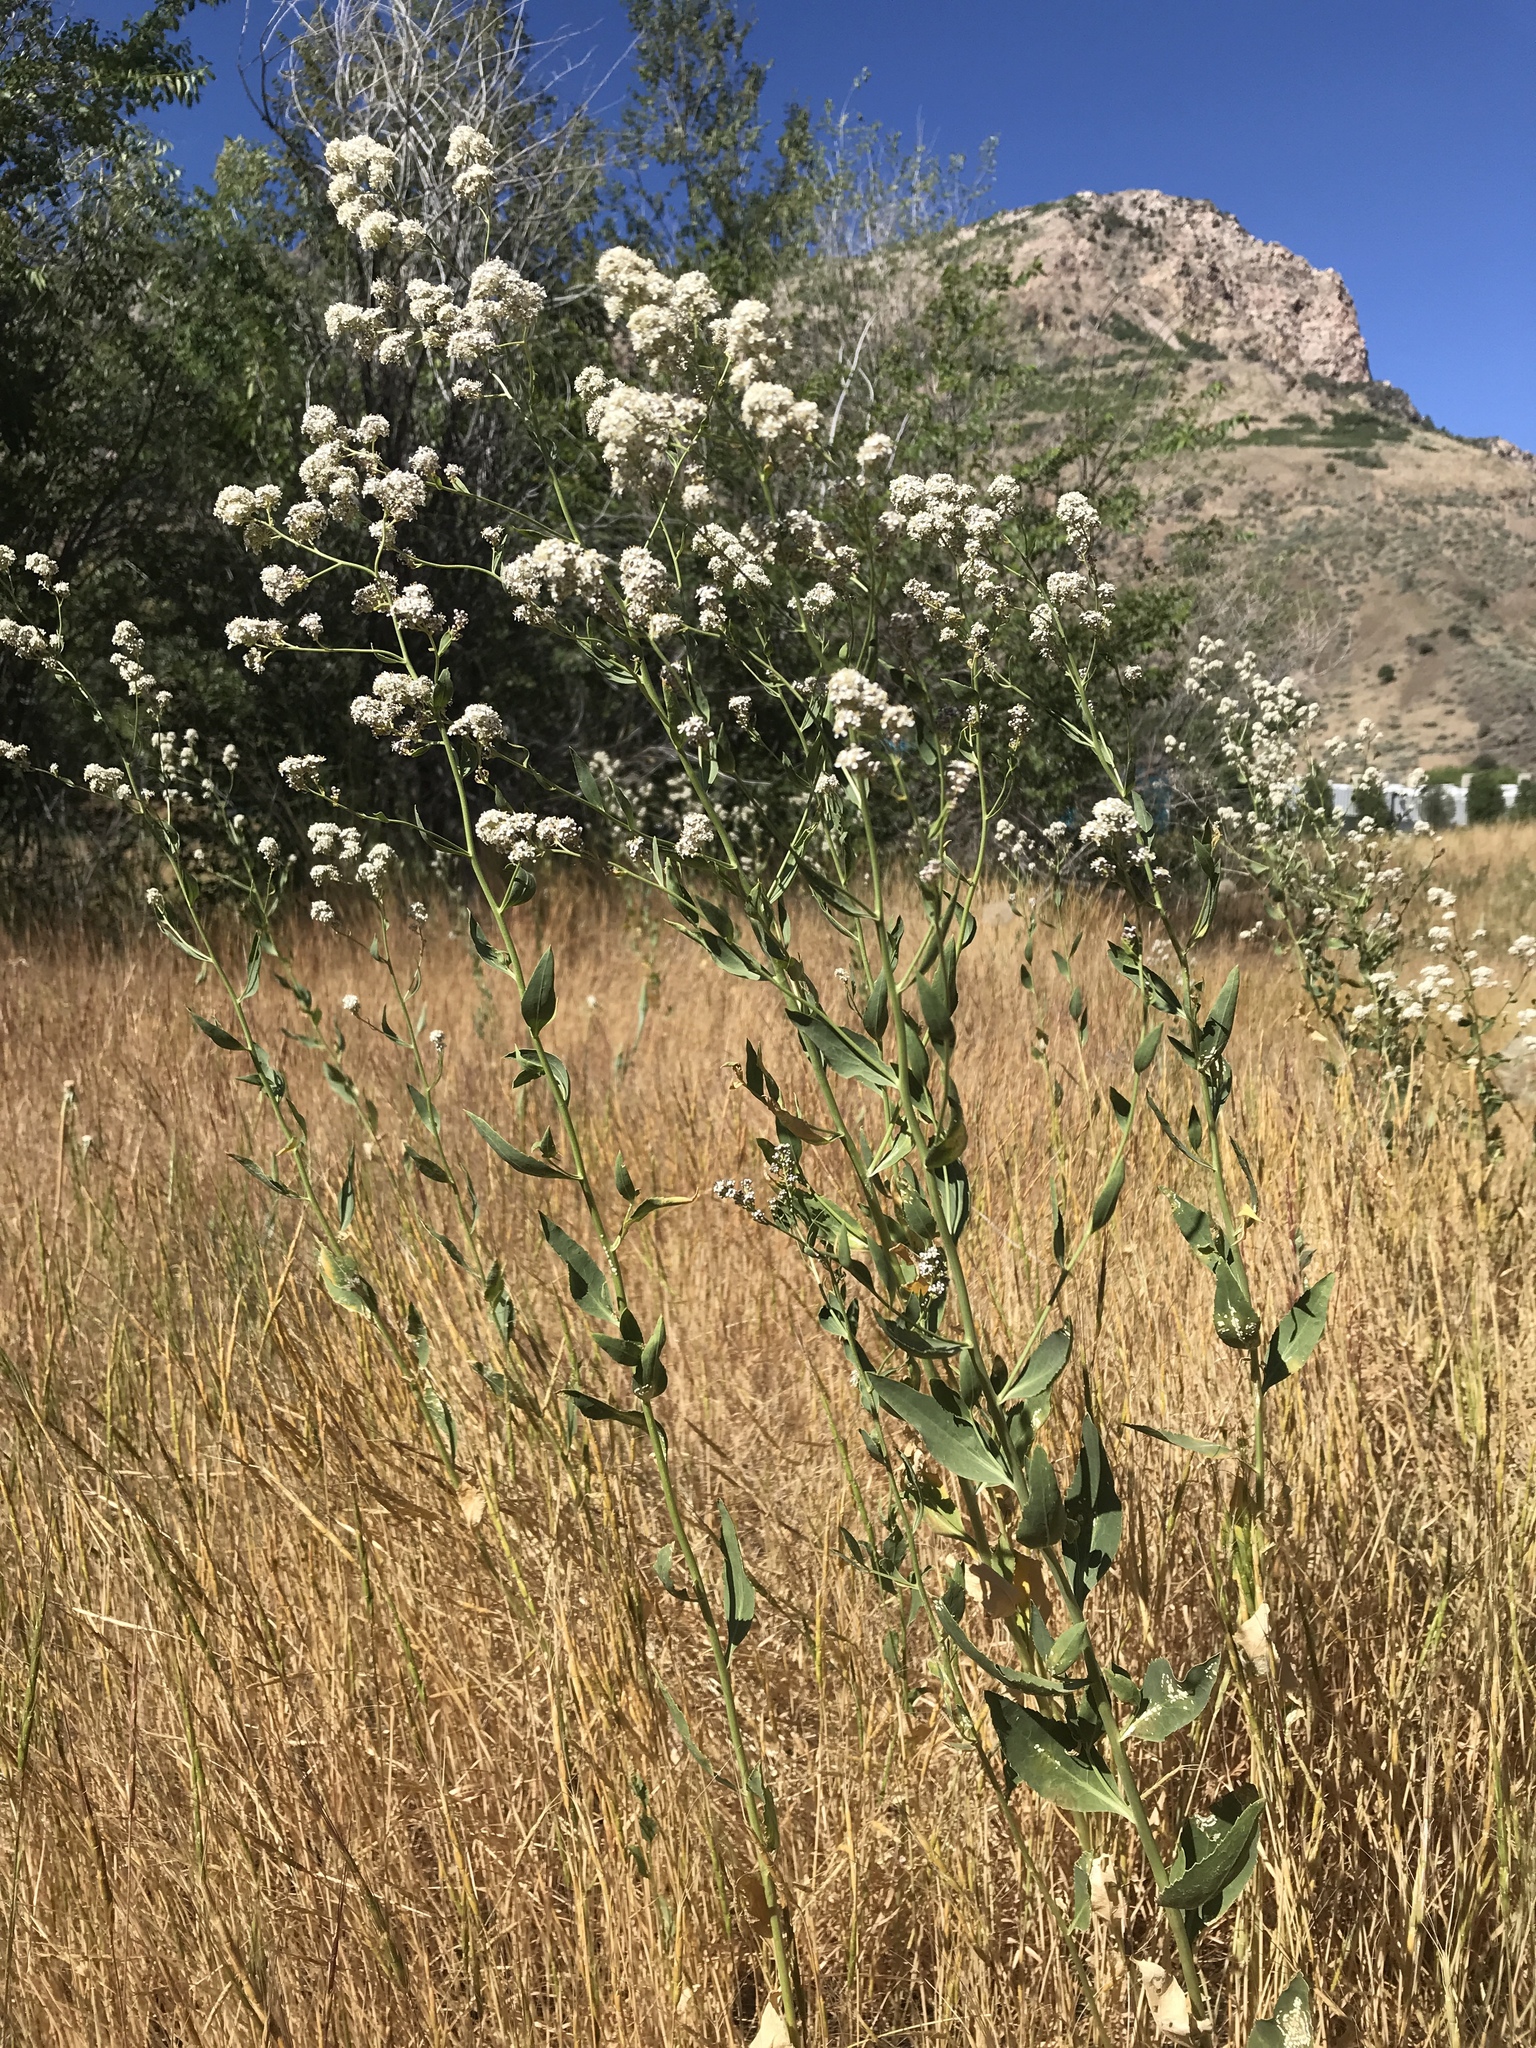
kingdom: Plantae
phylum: Tracheophyta
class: Magnoliopsida
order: Brassicales
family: Brassicaceae
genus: Lepidium
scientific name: Lepidium latifolium
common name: Dittander
